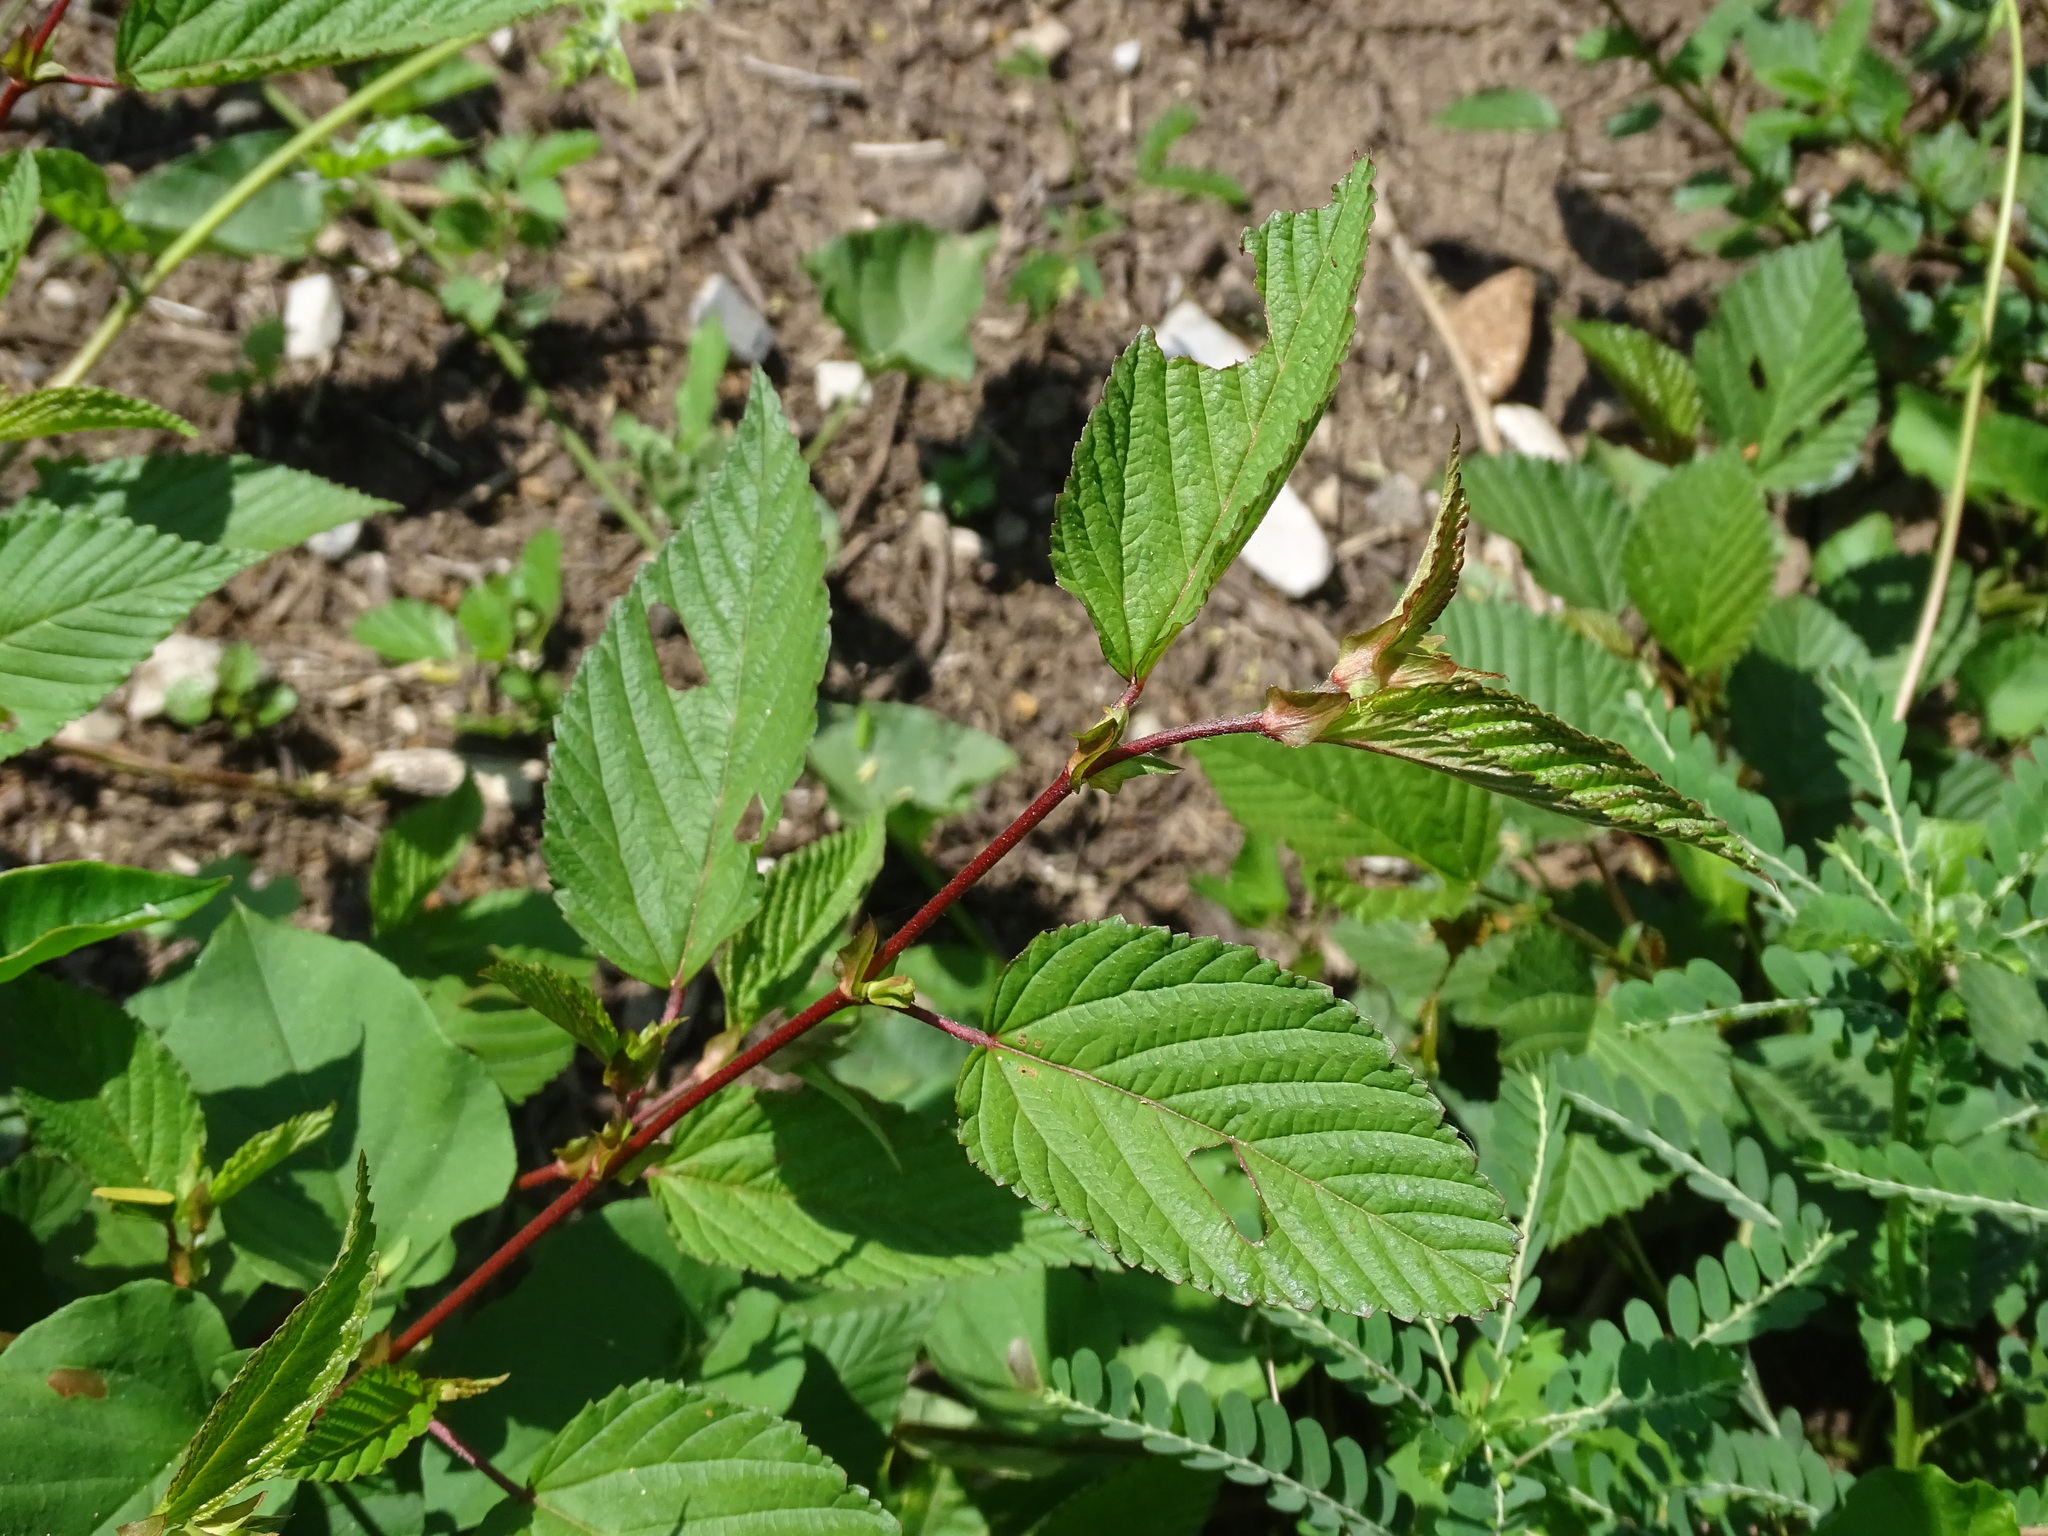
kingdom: Plantae
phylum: Tracheophyta
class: Magnoliopsida
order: Malvales
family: Malvaceae
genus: Corchorus
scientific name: Corchorus olitorius
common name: Tossa jute
